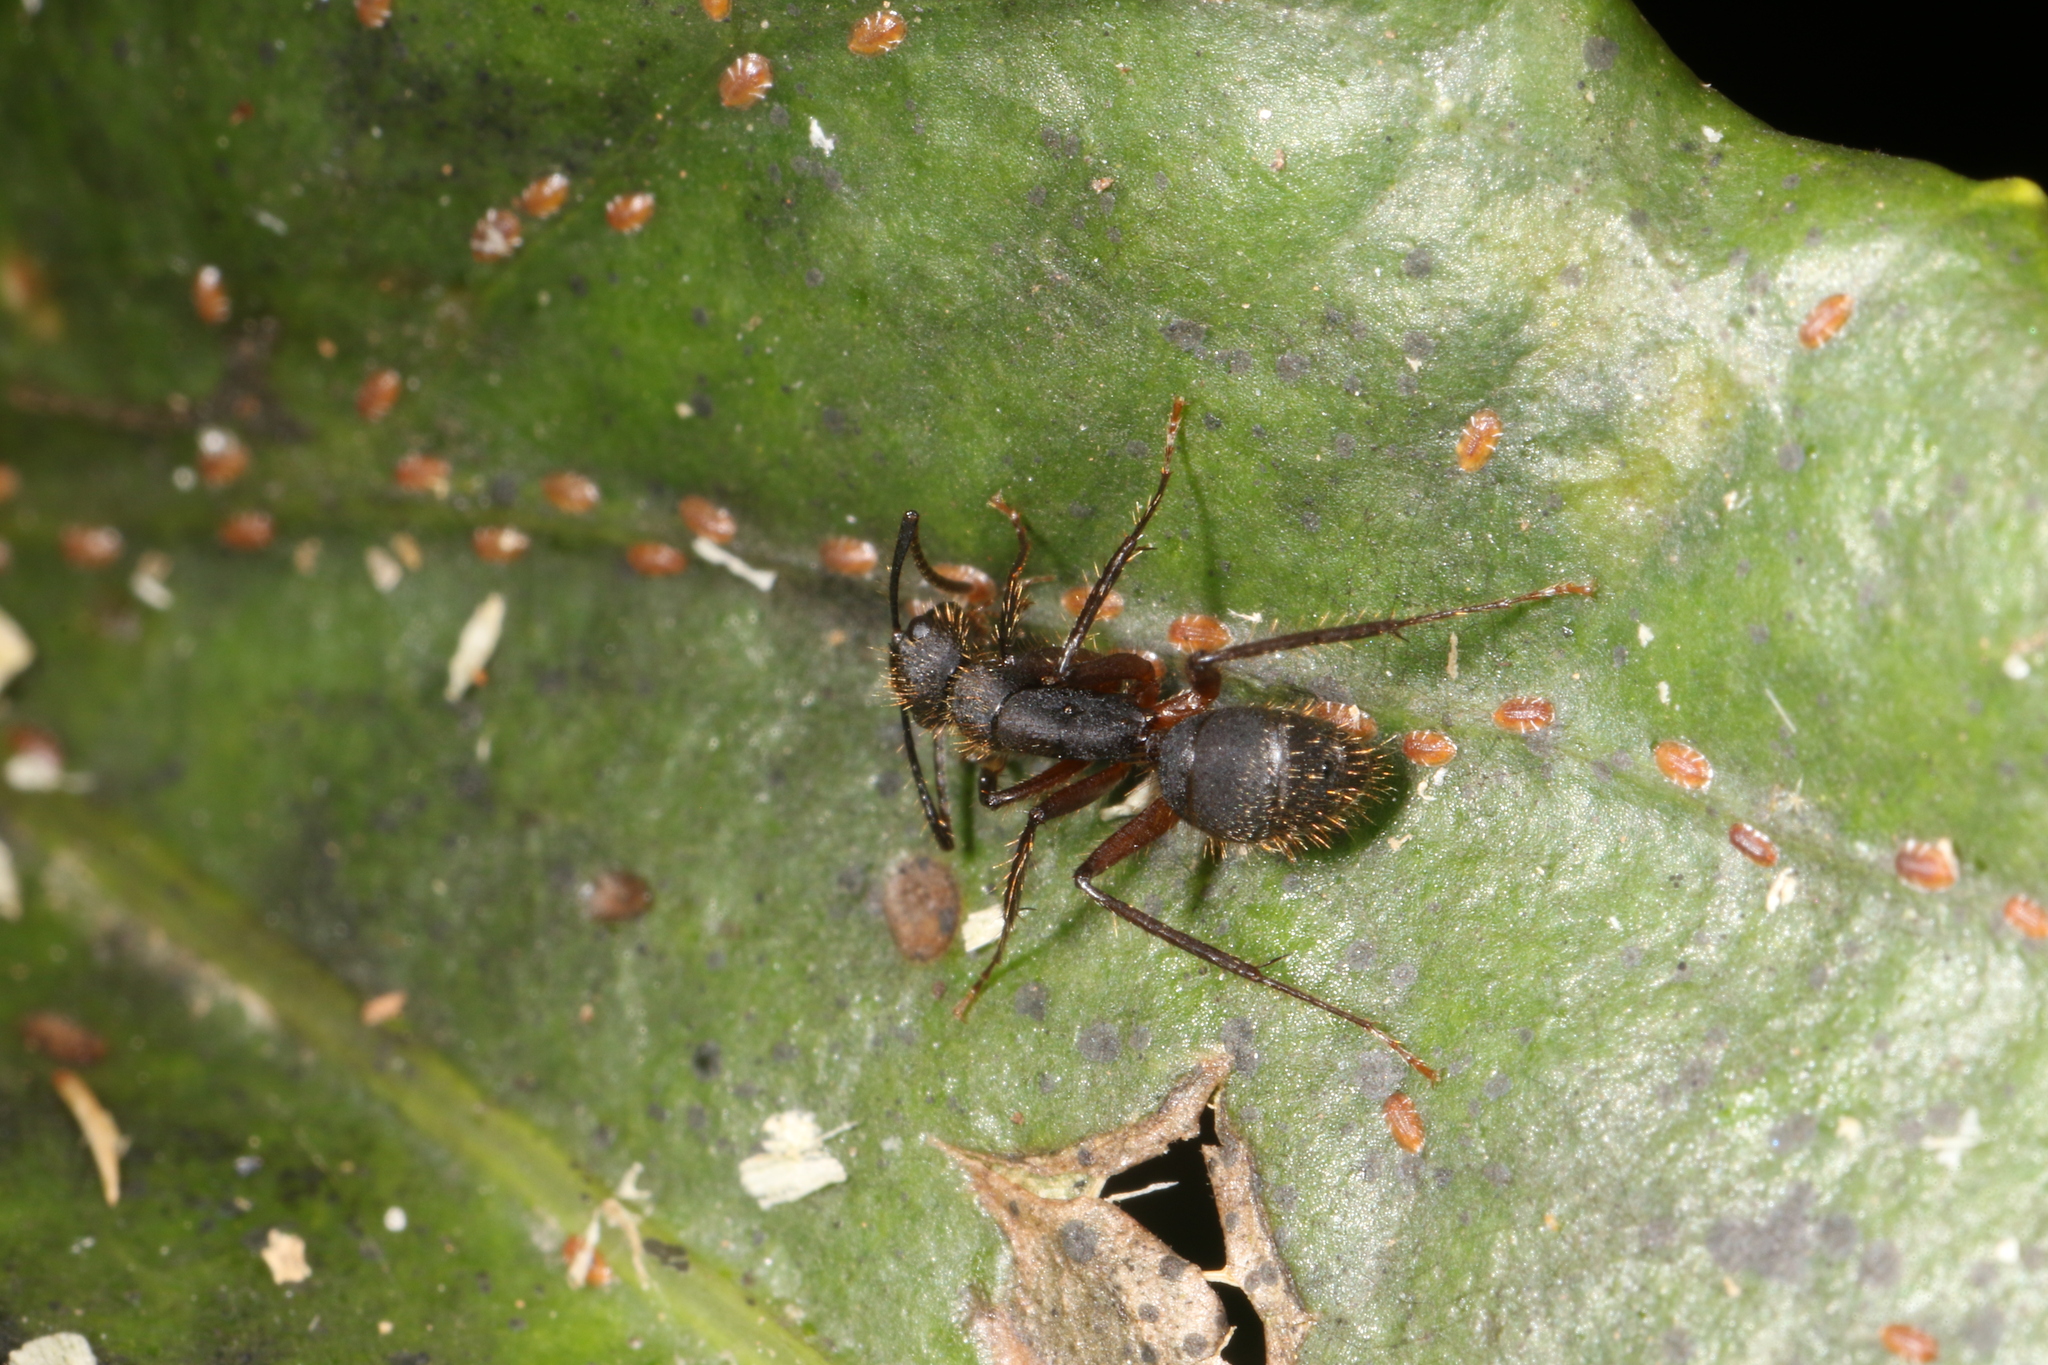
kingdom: Animalia
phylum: Arthropoda
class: Insecta
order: Hymenoptera
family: Formicidae
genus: Camponotus
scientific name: Camponotus rufipes
